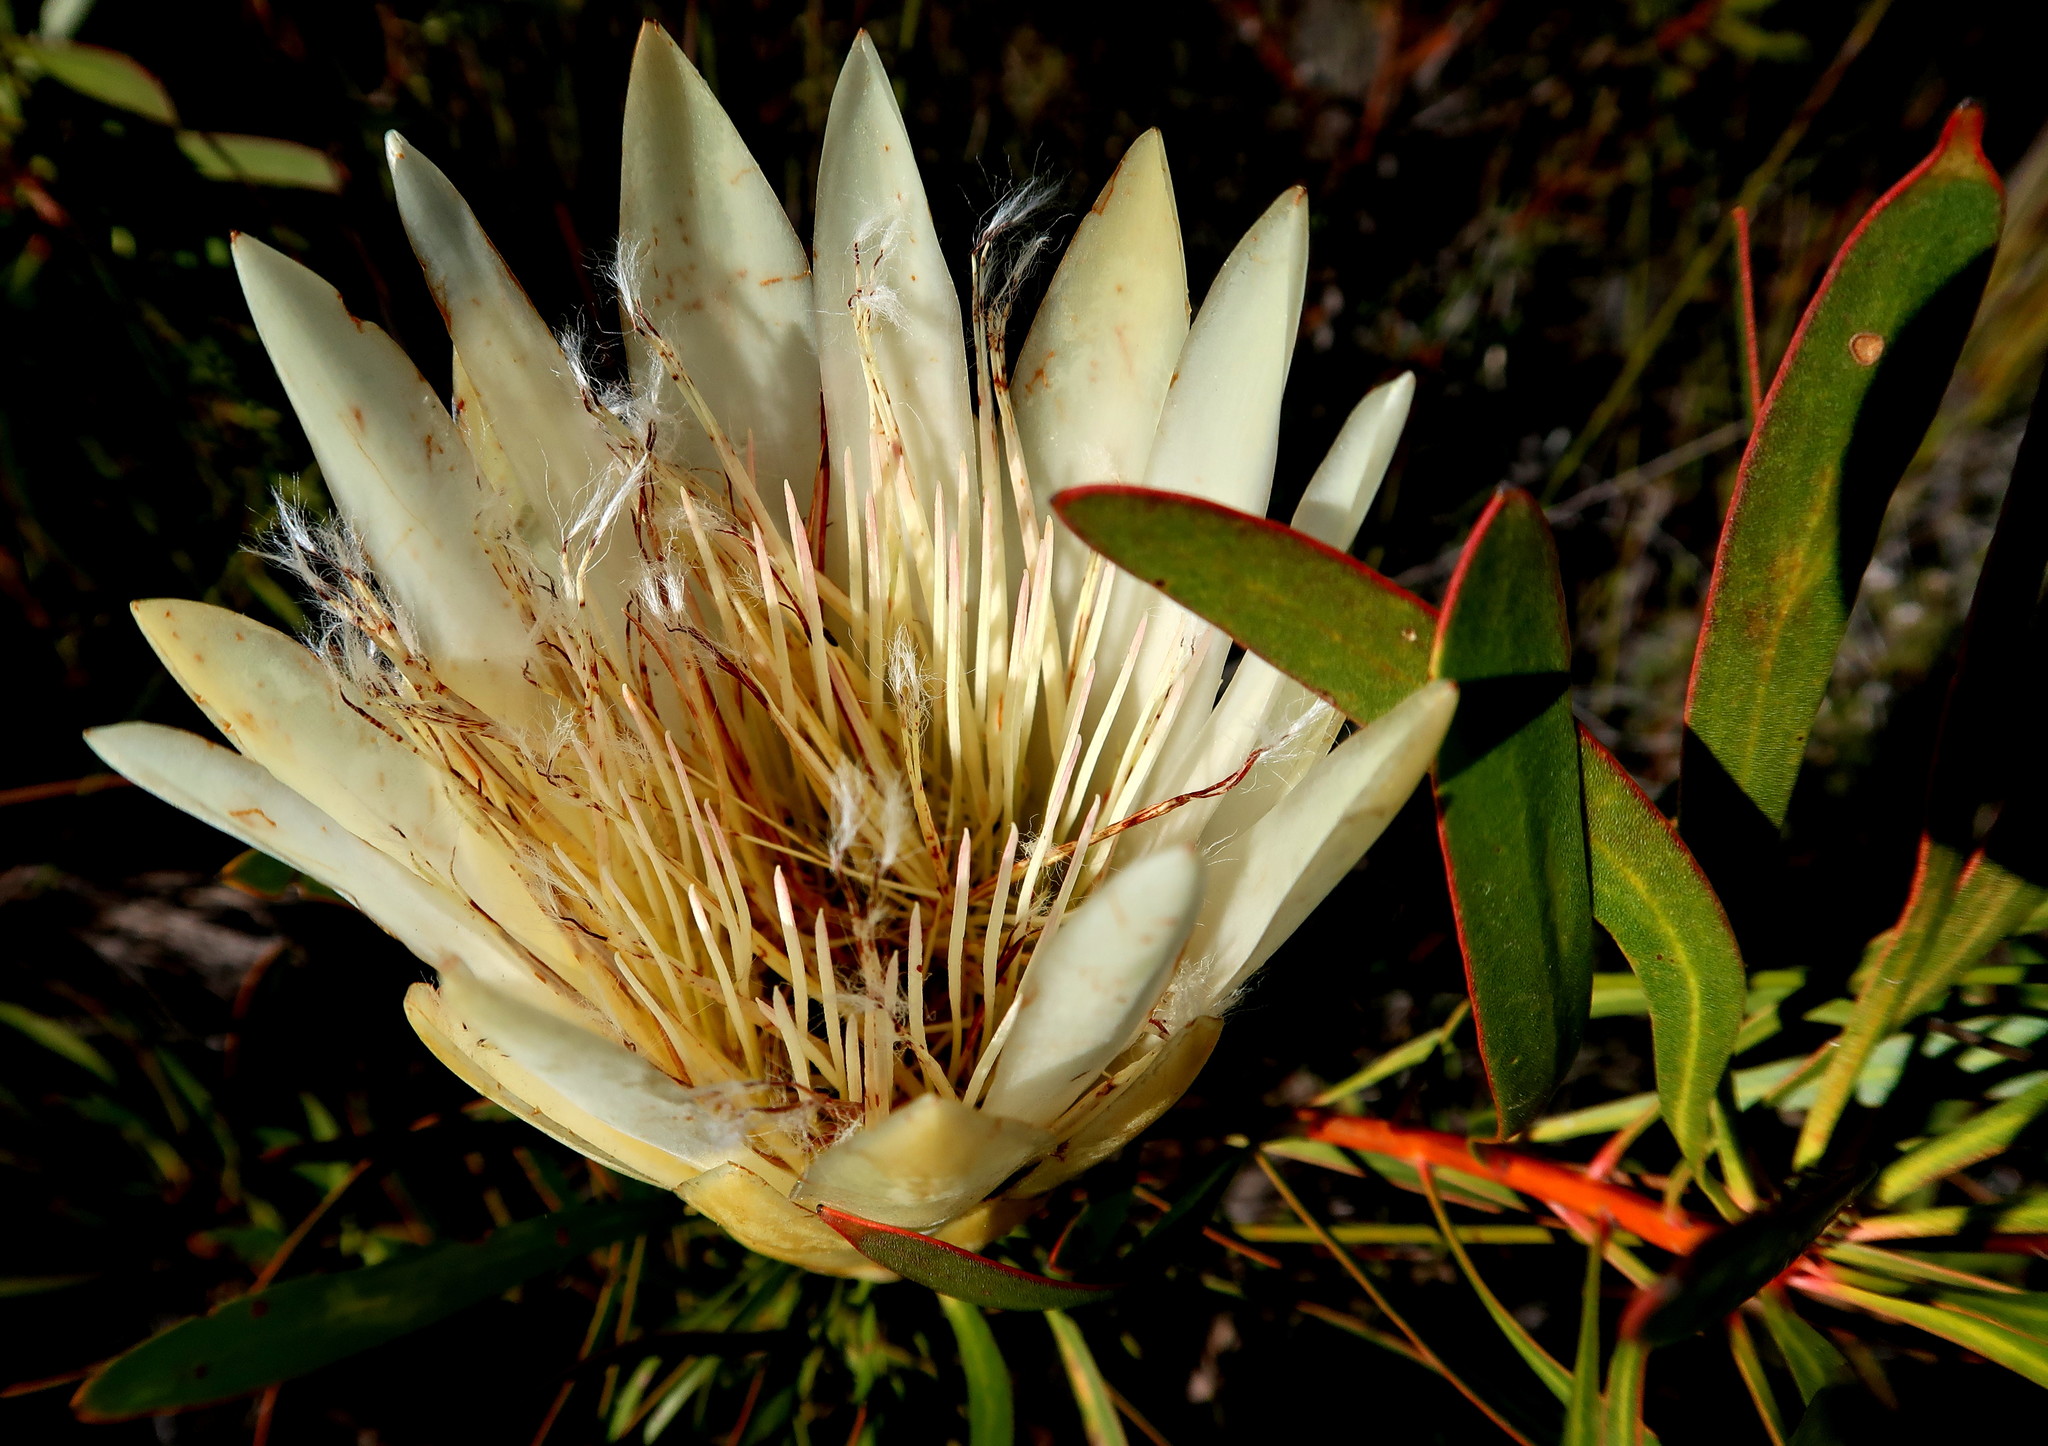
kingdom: Plantae
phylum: Tracheophyta
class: Magnoliopsida
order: Proteales
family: Proteaceae
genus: Protea
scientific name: Protea repens
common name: Sugarbush
